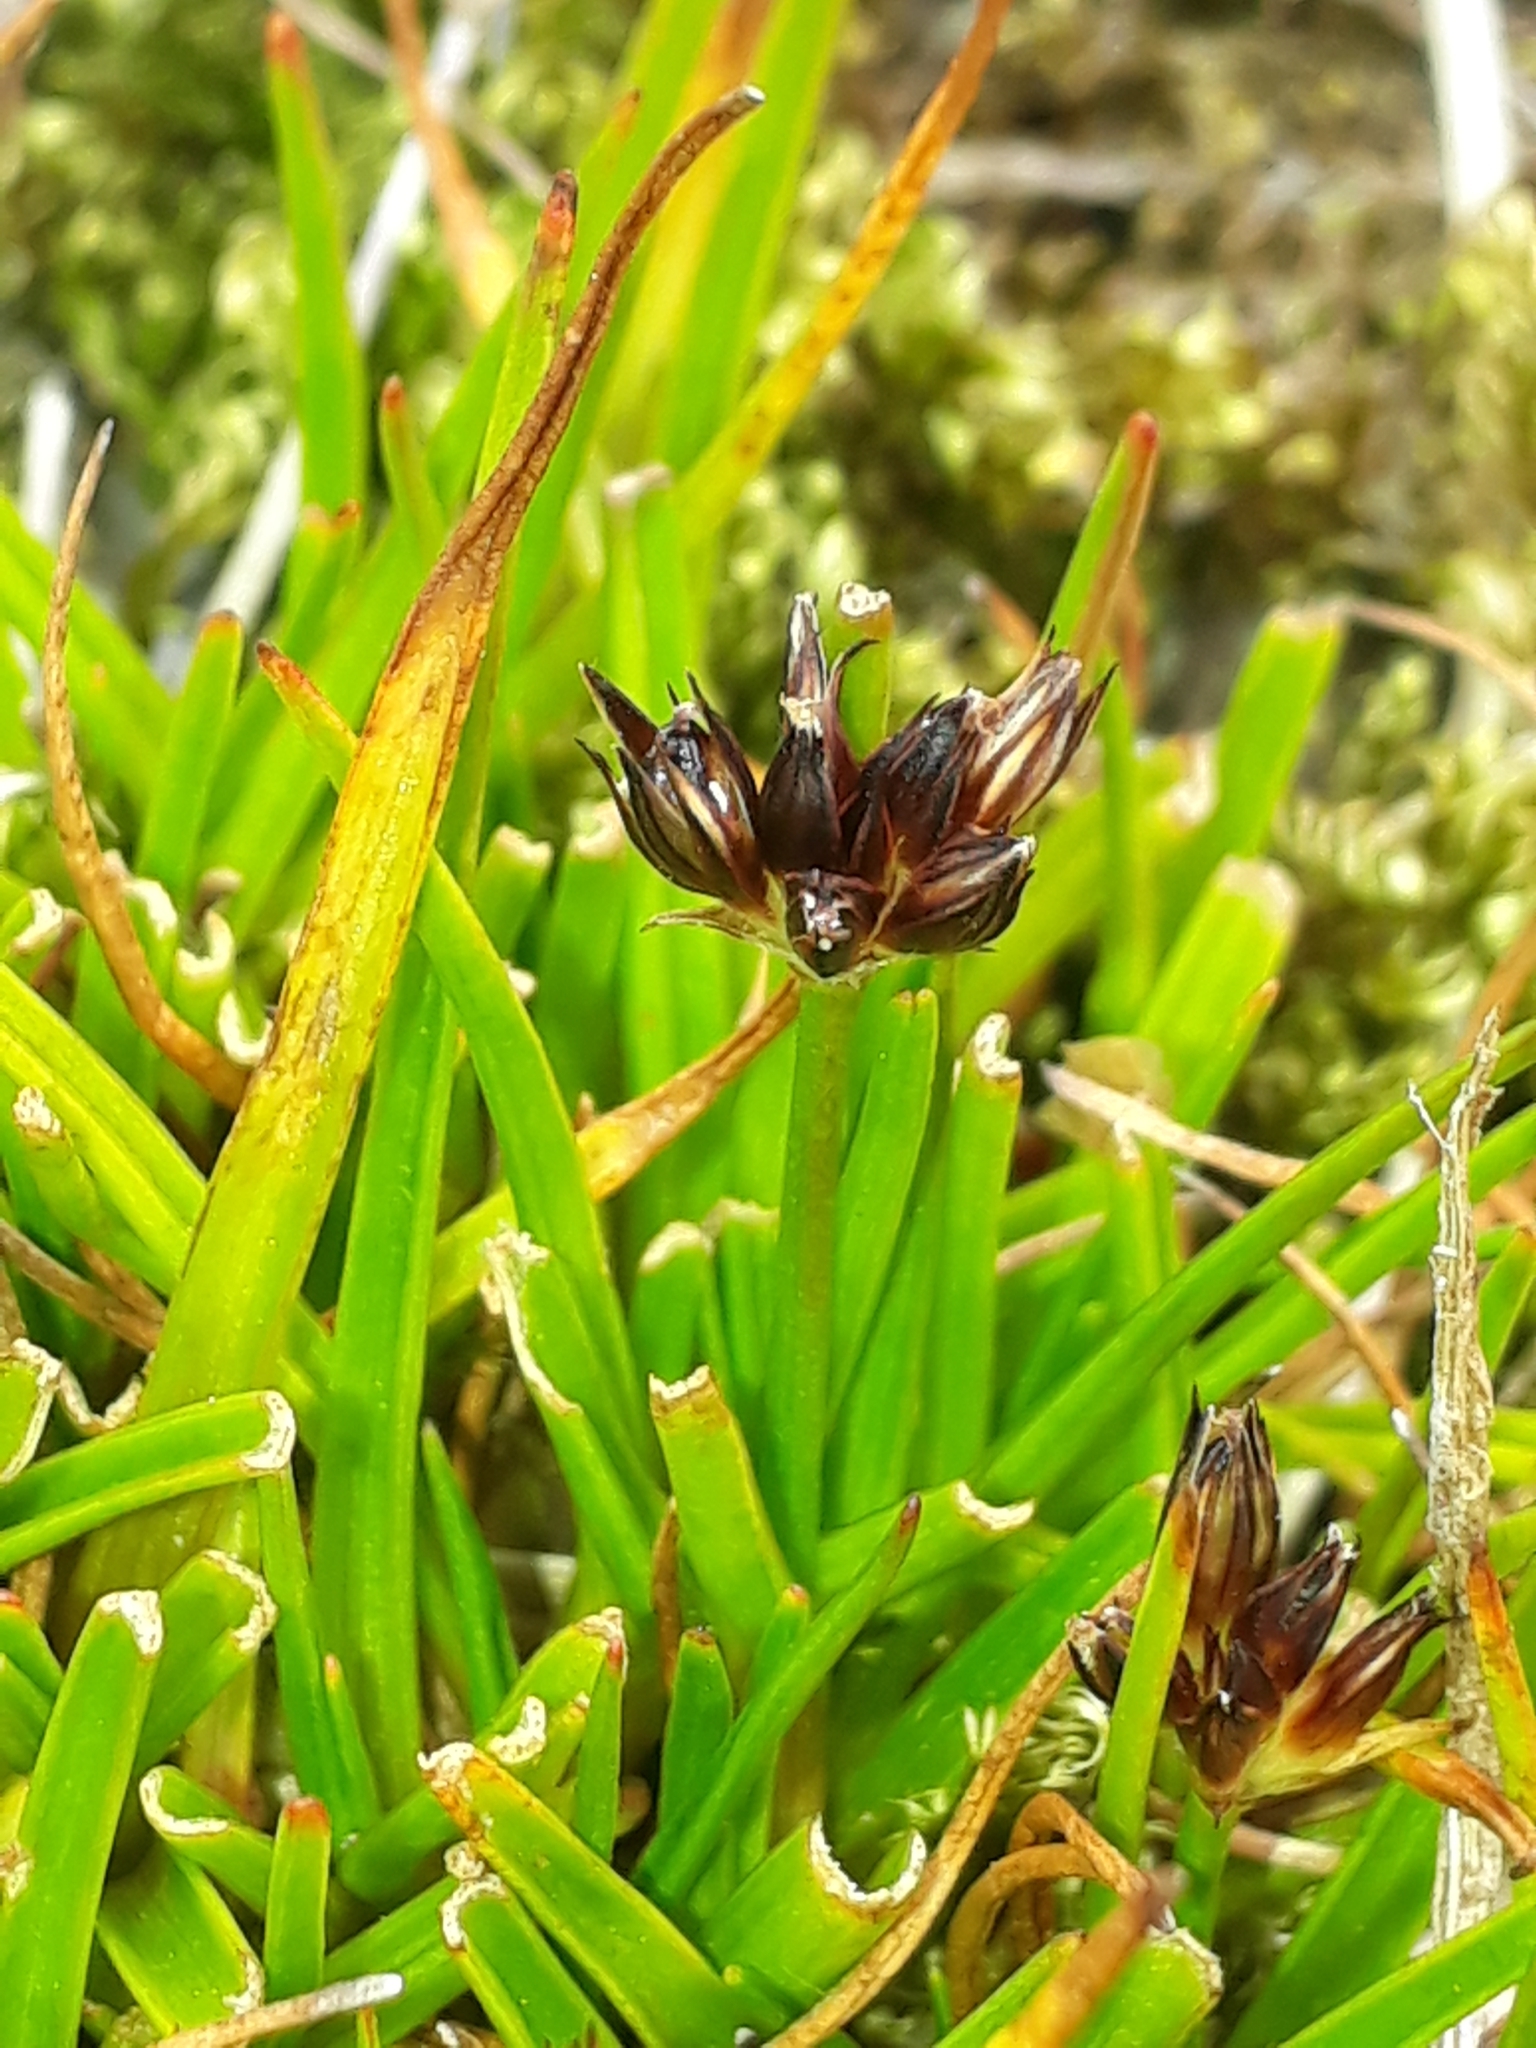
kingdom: Plantae
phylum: Tracheophyta
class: Liliopsida
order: Poales
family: Juncaceae
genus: Juncus
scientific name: Juncus antarcticus
